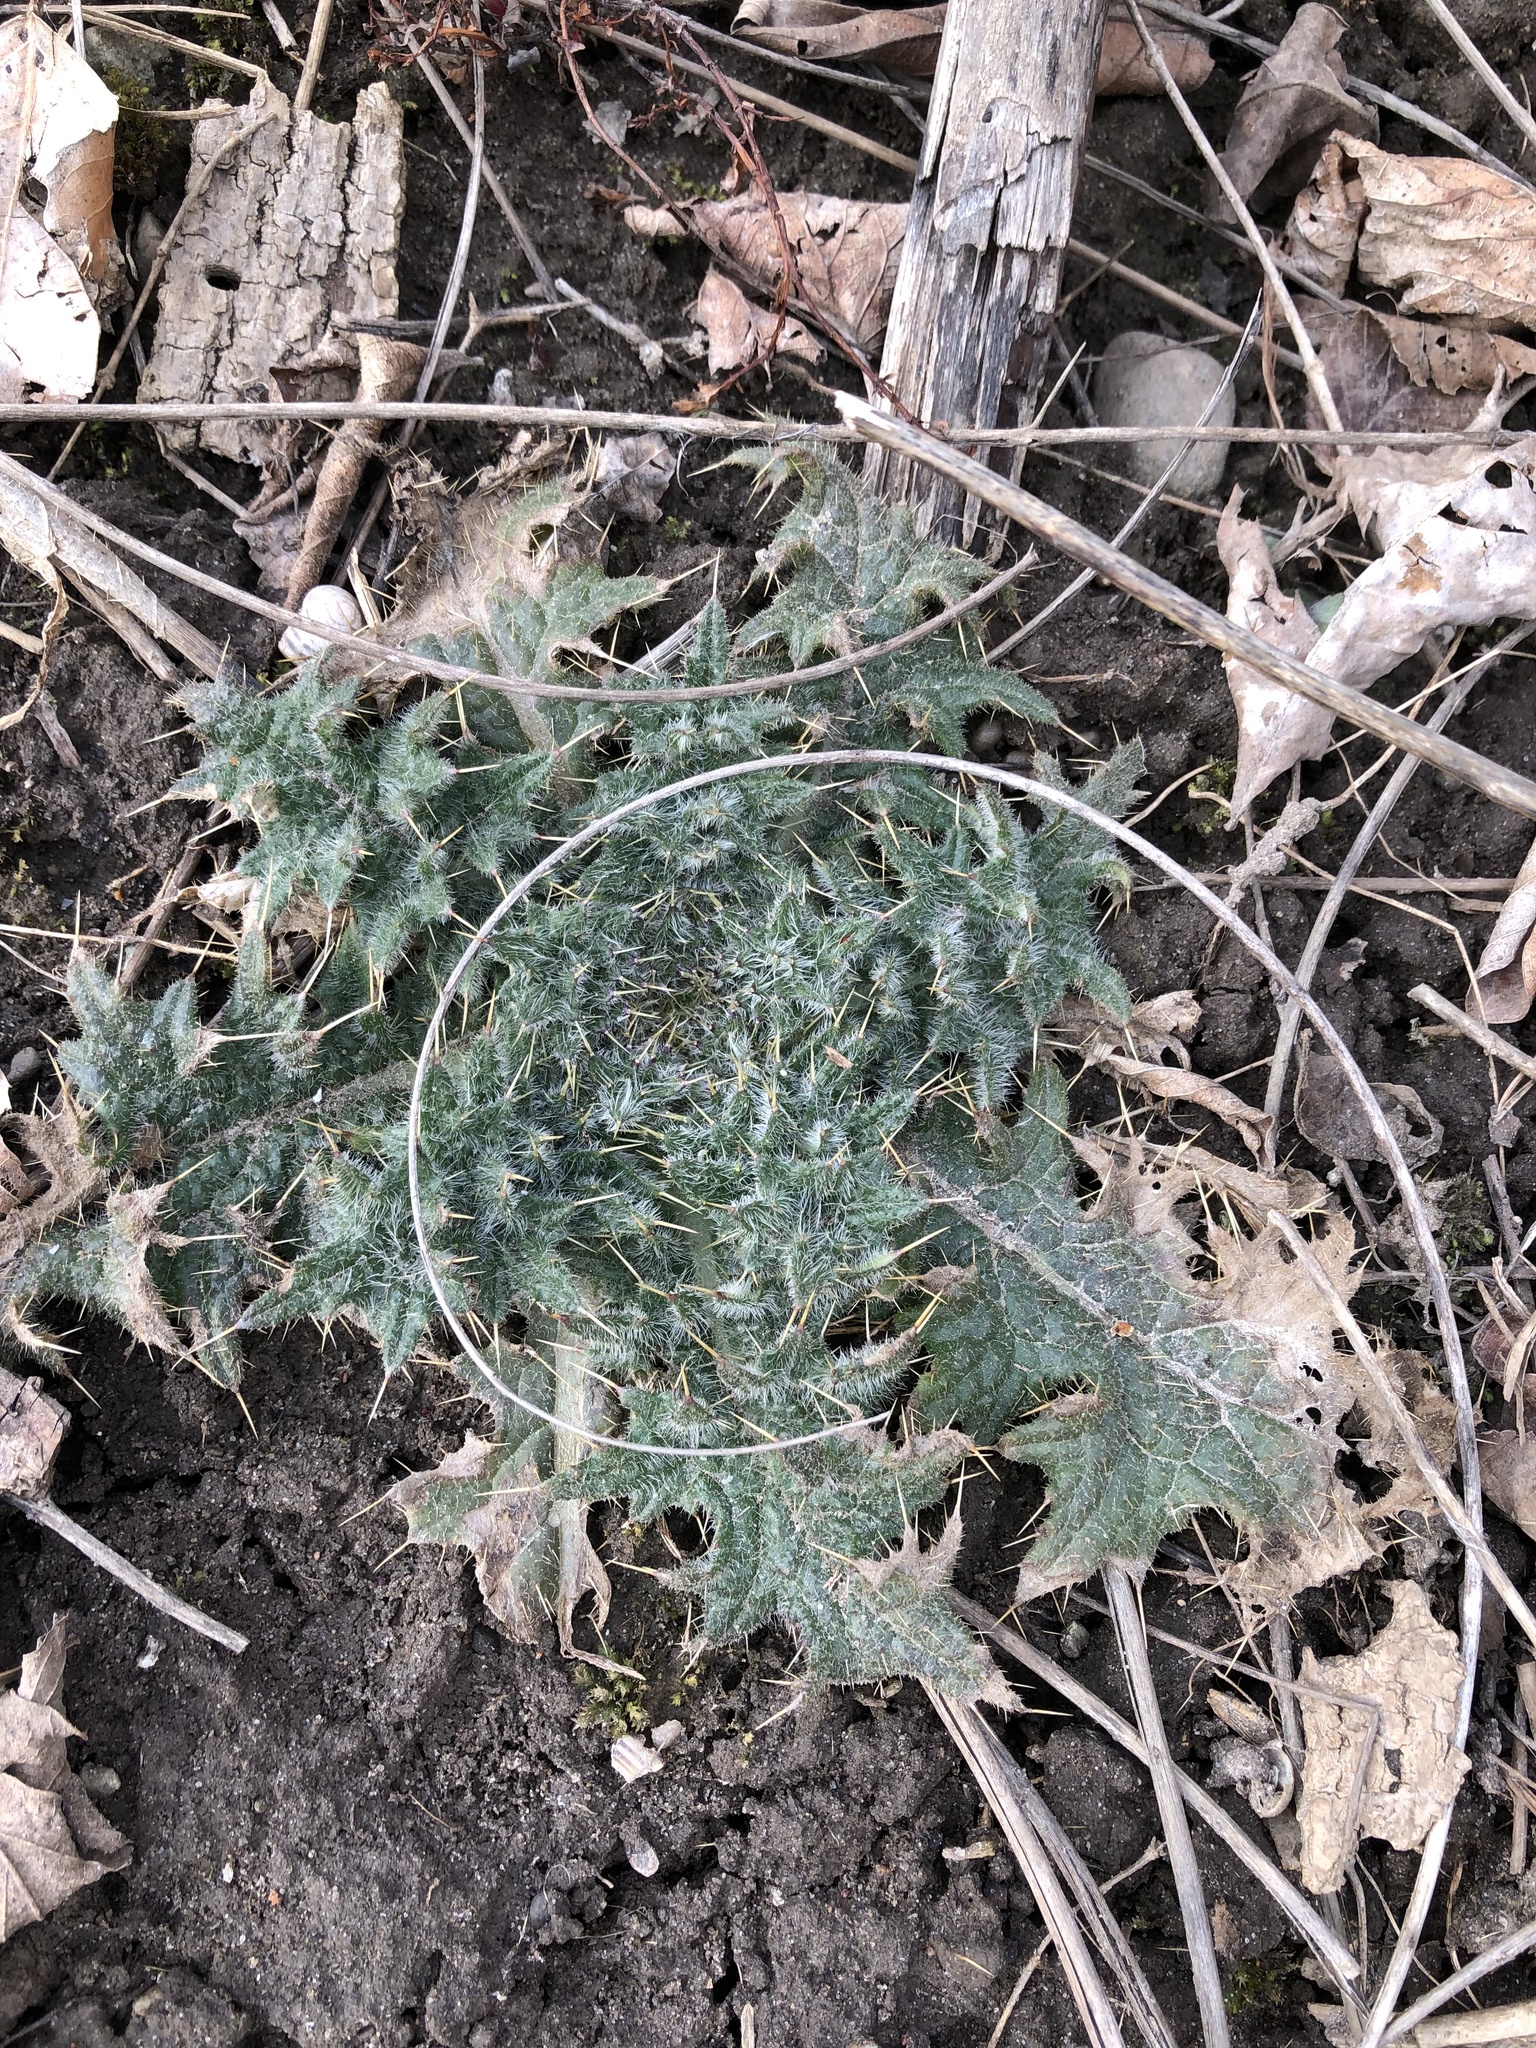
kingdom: Plantae
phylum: Tracheophyta
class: Magnoliopsida
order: Asterales
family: Asteraceae
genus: Cirsium
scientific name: Cirsium vulgare
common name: Bull thistle
